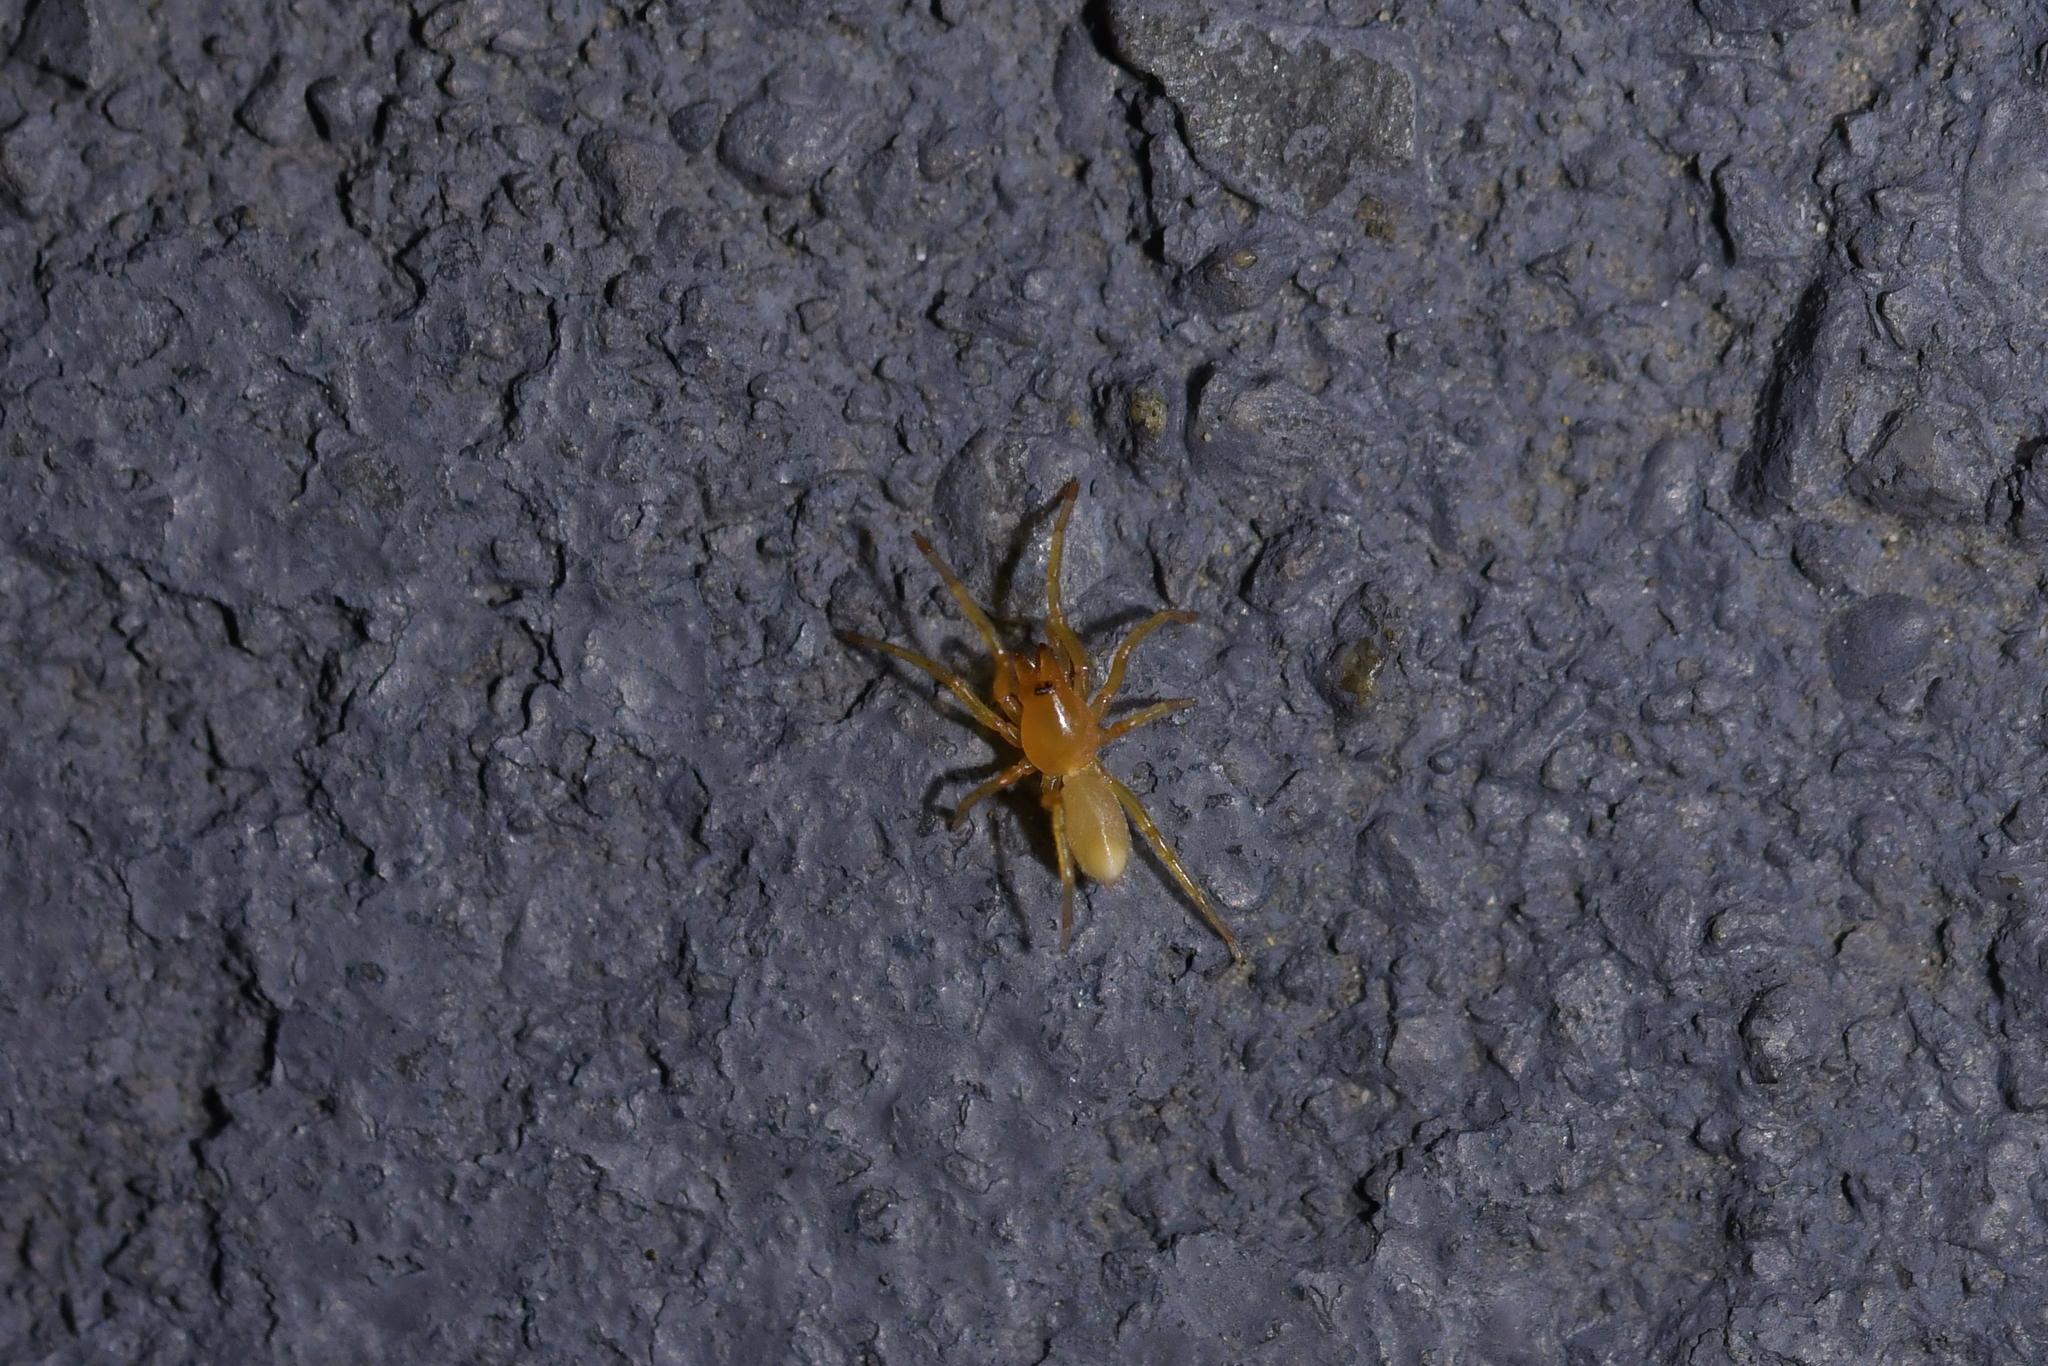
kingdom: Animalia
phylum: Arthropoda
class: Arachnida
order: Araneae
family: Dysderidae
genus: Dysdera
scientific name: Dysdera crocata
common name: Woodlouse spider
